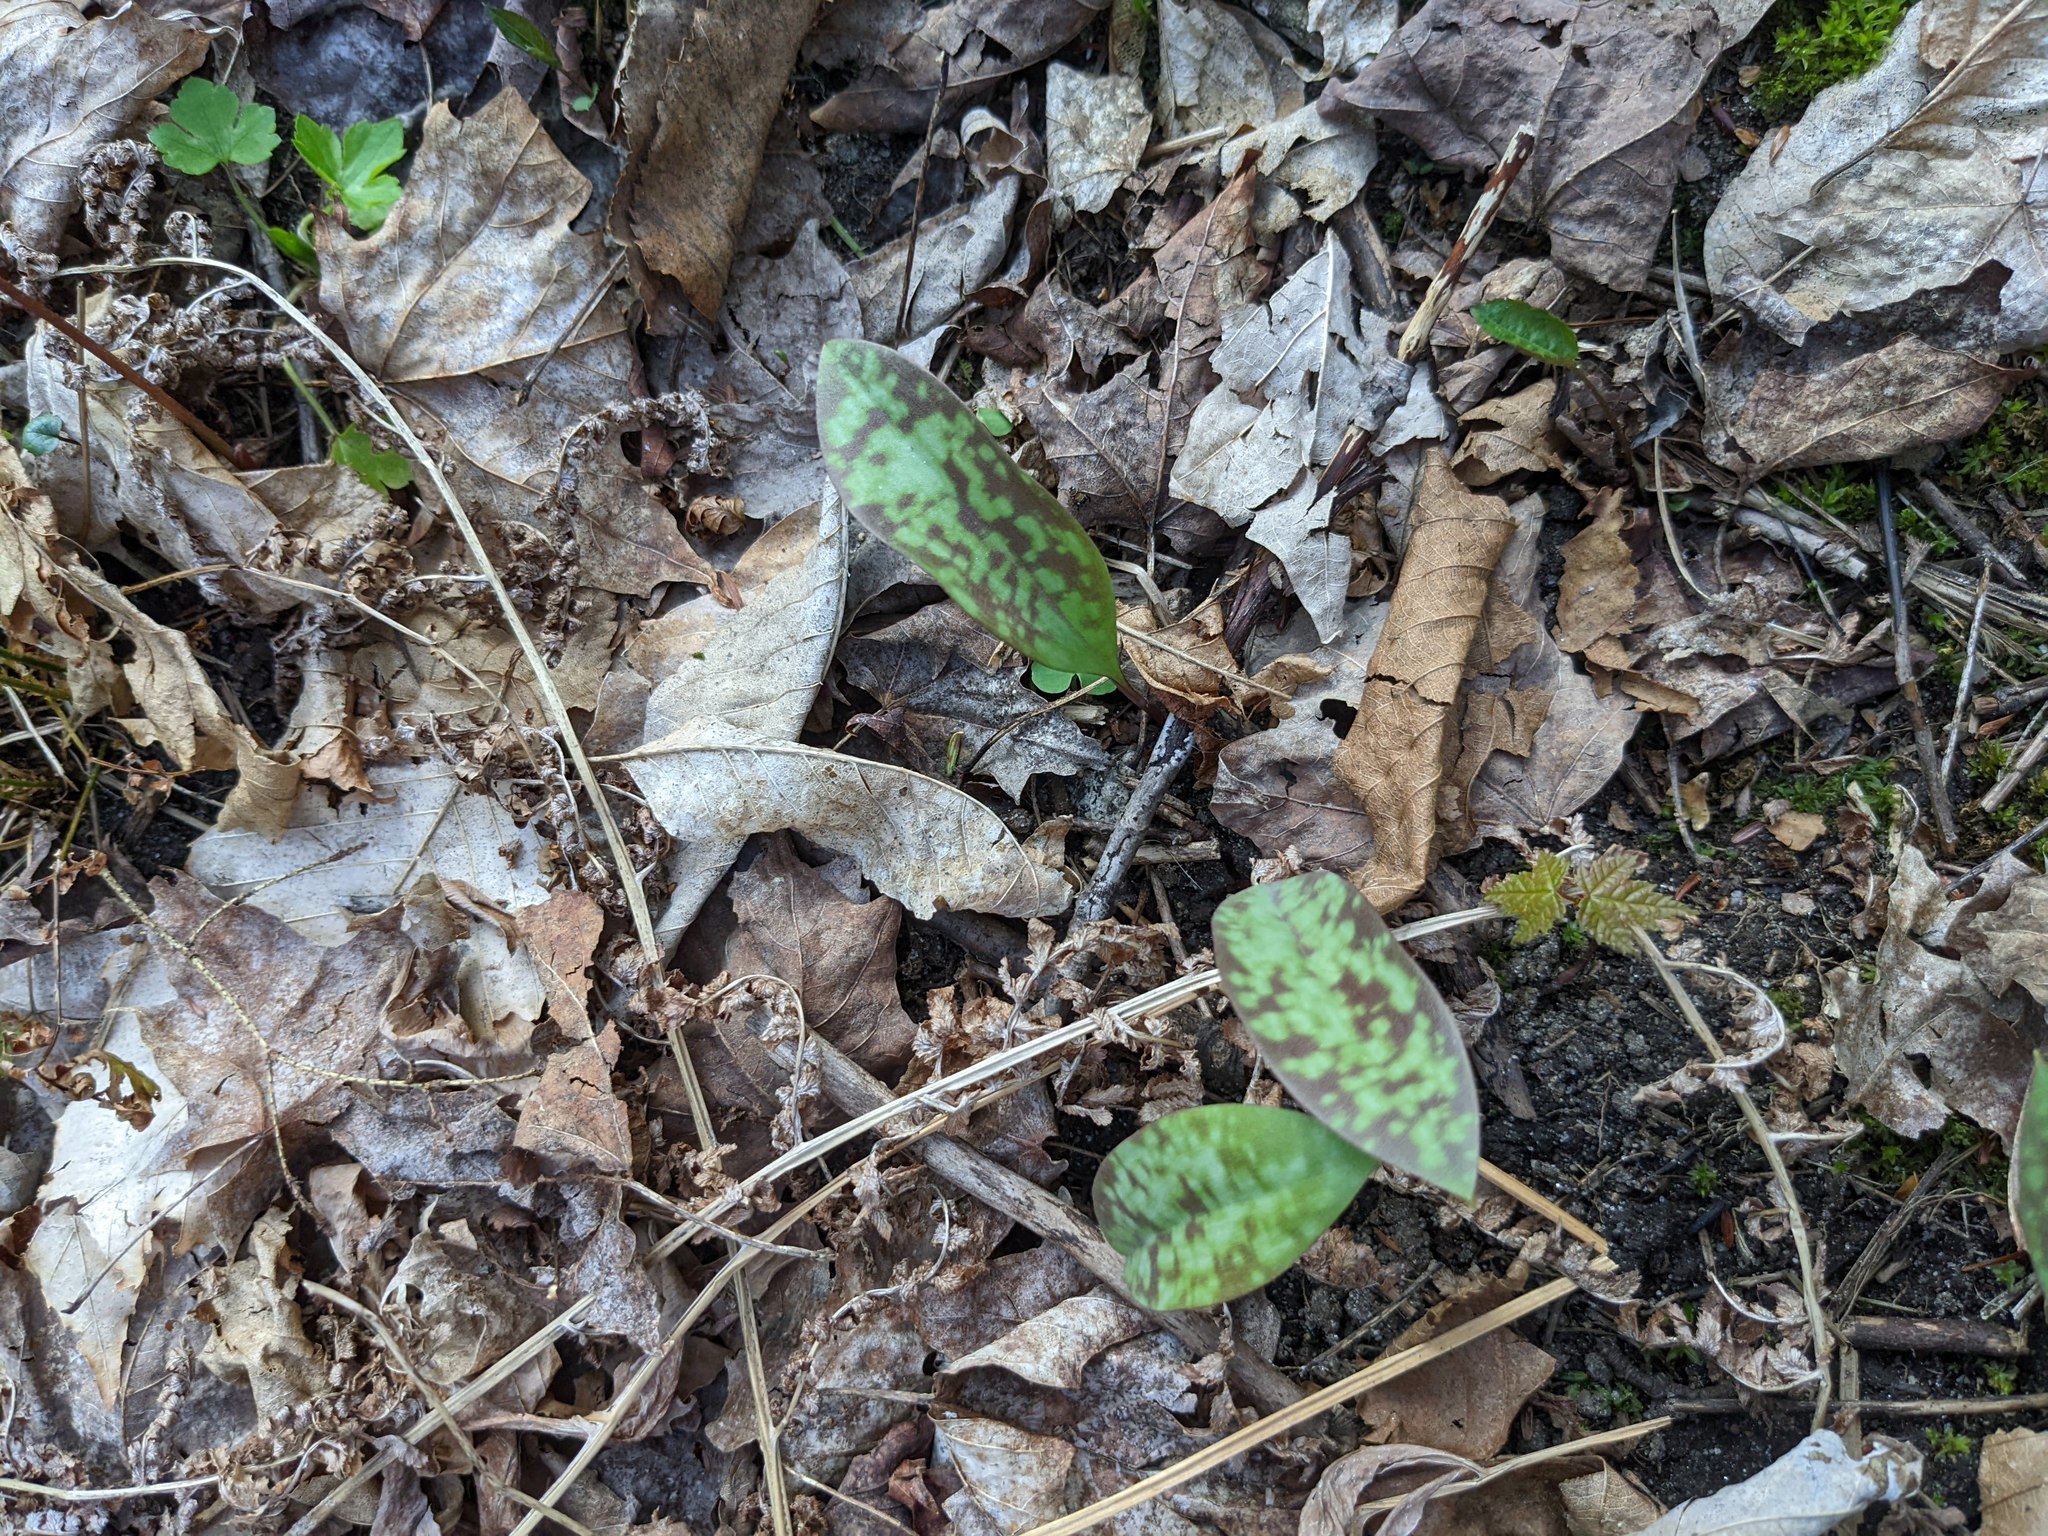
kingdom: Plantae
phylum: Tracheophyta
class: Liliopsida
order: Liliales
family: Liliaceae
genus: Erythronium
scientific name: Erythronium americanum
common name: Yellow adder's-tongue
